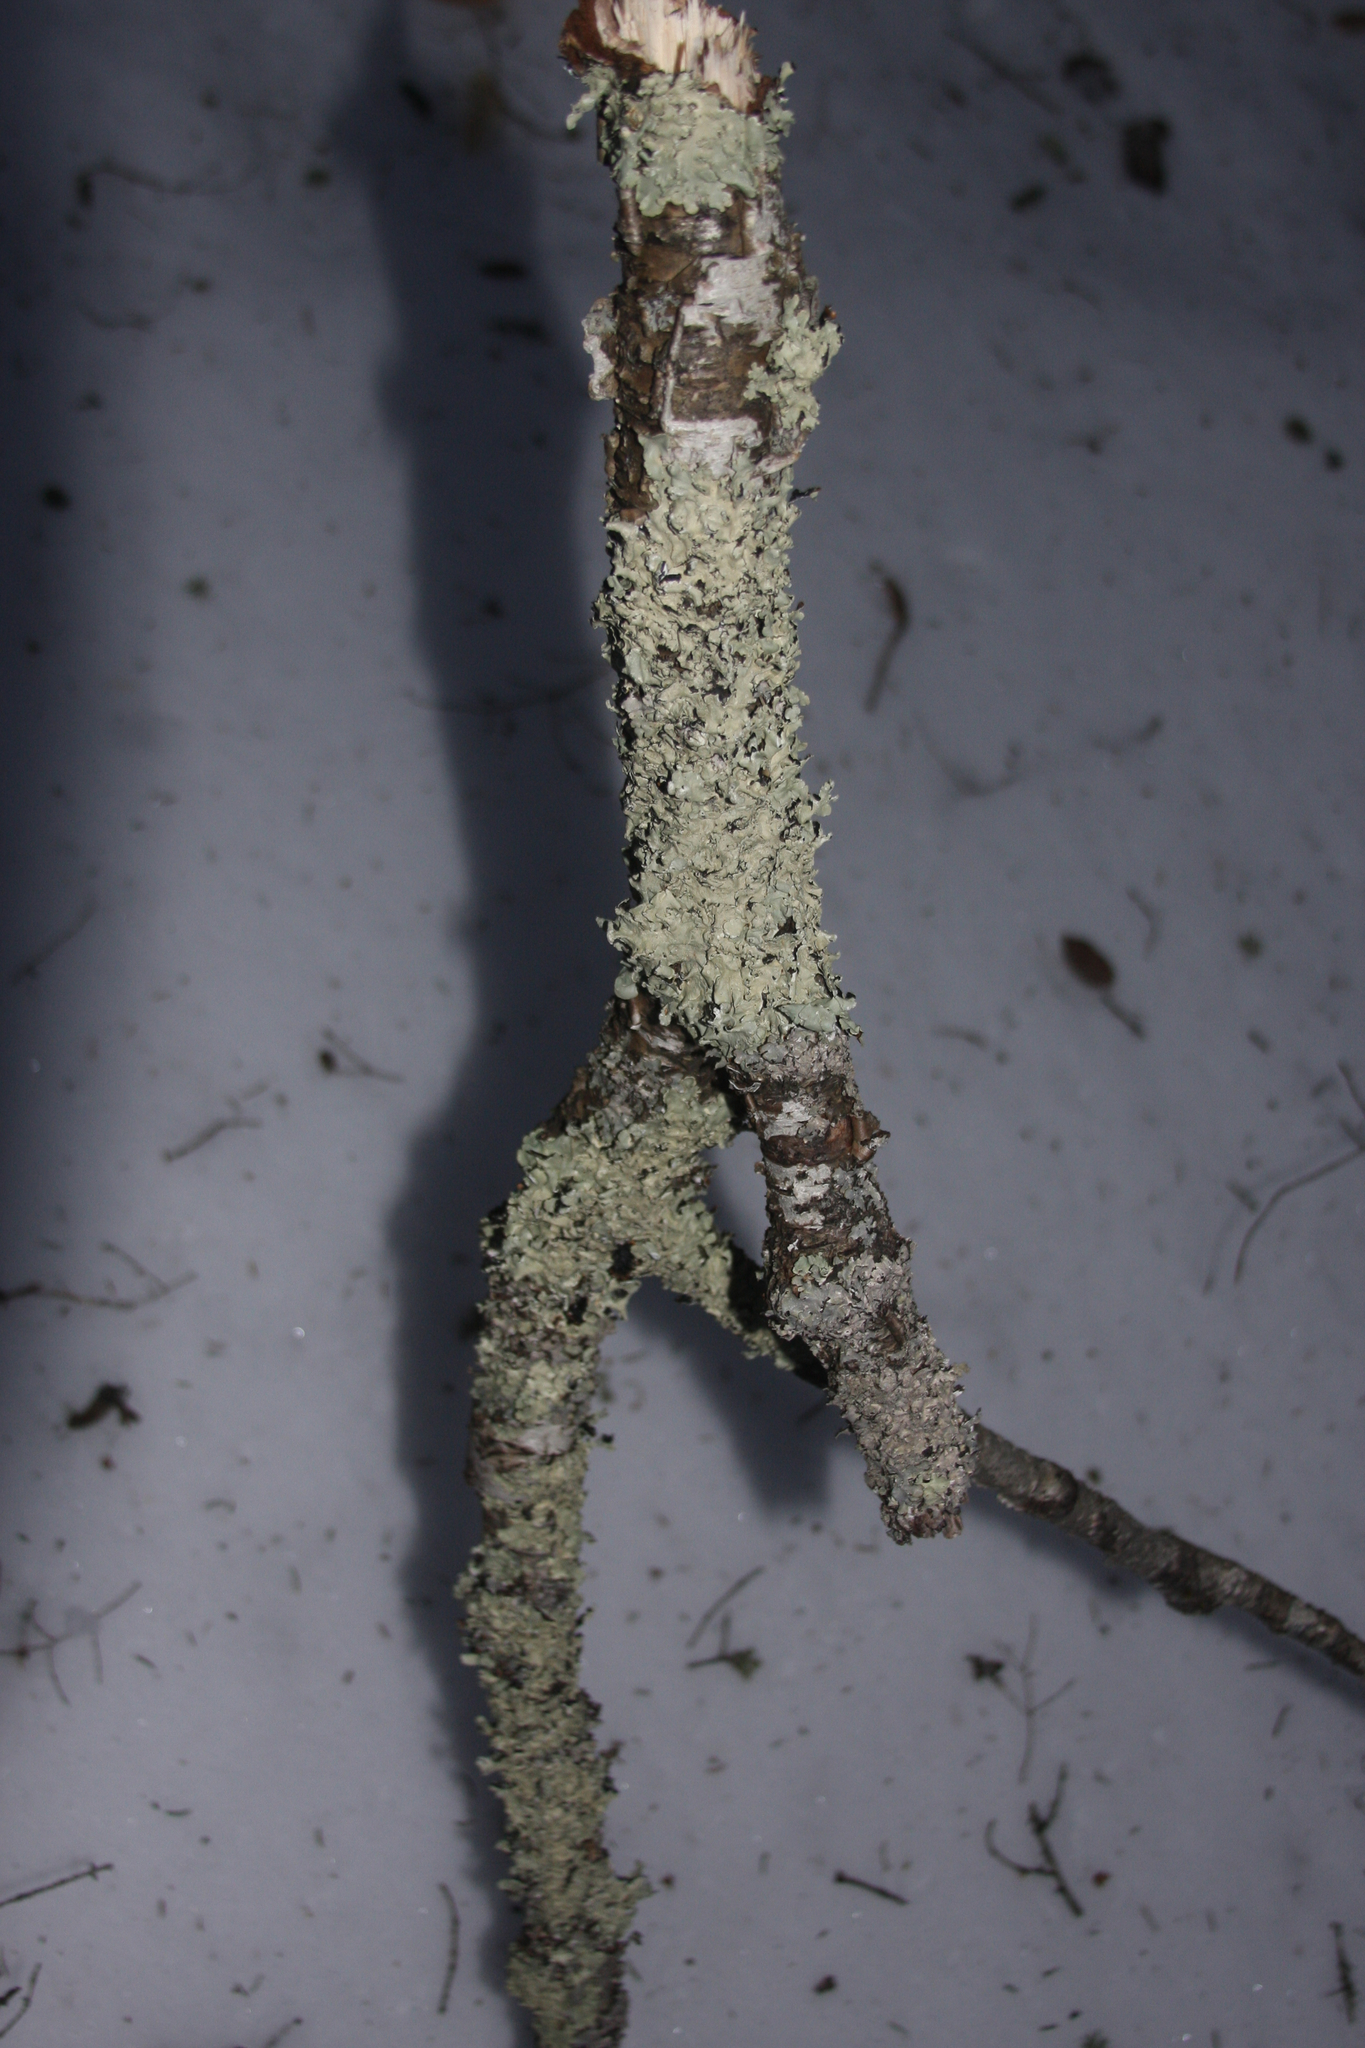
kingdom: Fungi
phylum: Ascomycota
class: Lecanoromycetes
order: Lecanorales
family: Parmeliaceae
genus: Flavoparmelia
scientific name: Flavoparmelia caperata
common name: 40-mile per hour lichen
